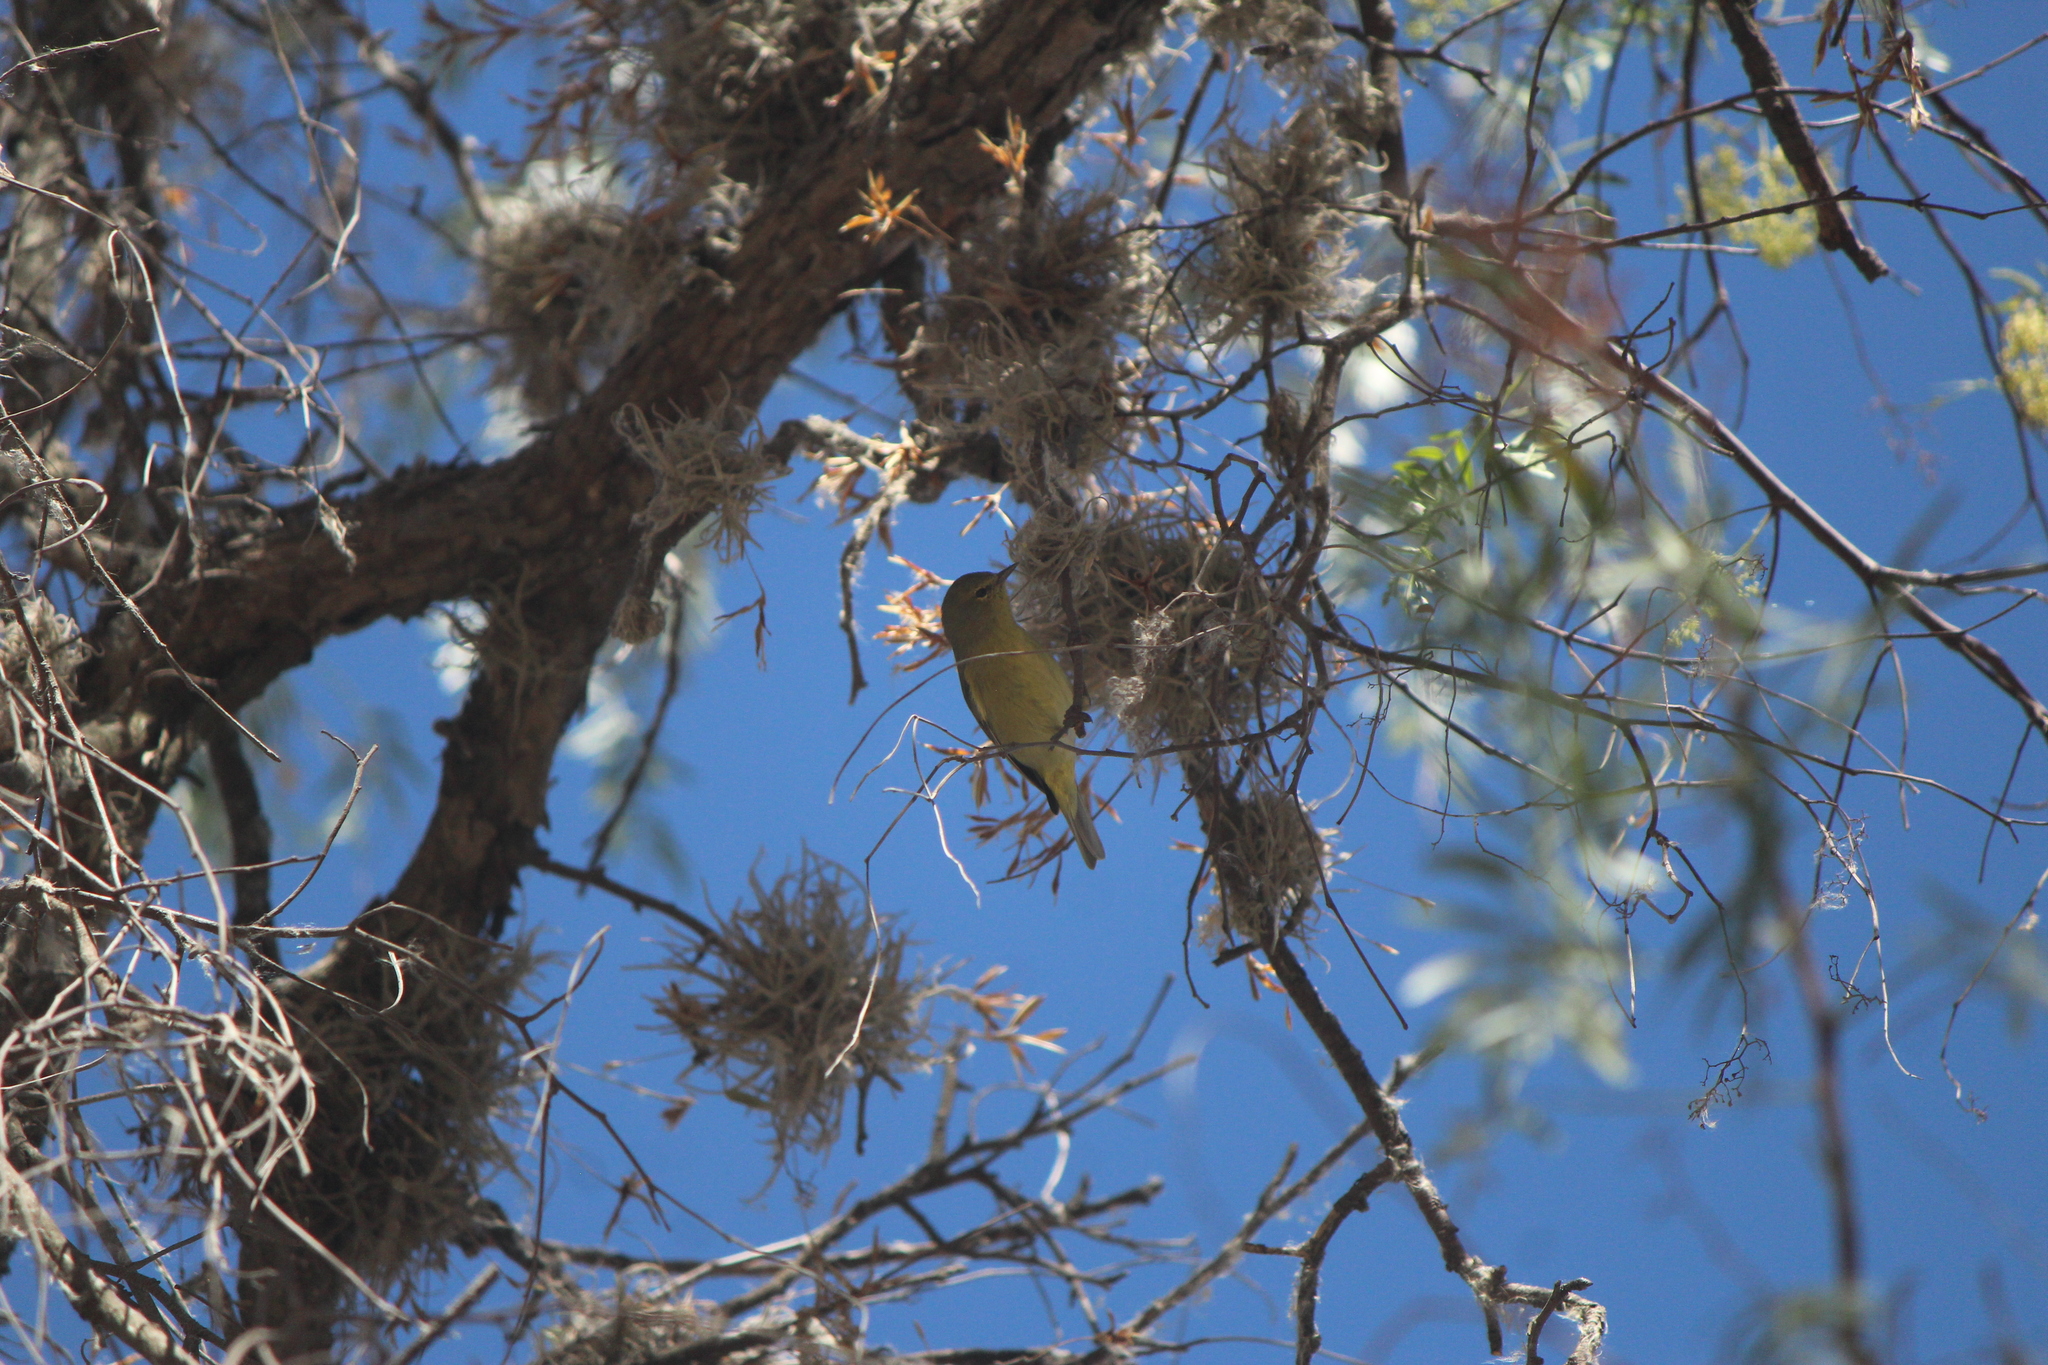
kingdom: Animalia
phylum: Chordata
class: Aves
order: Passeriformes
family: Parulidae
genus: Leiothlypis
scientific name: Leiothlypis celata
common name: Orange-crowned warbler
